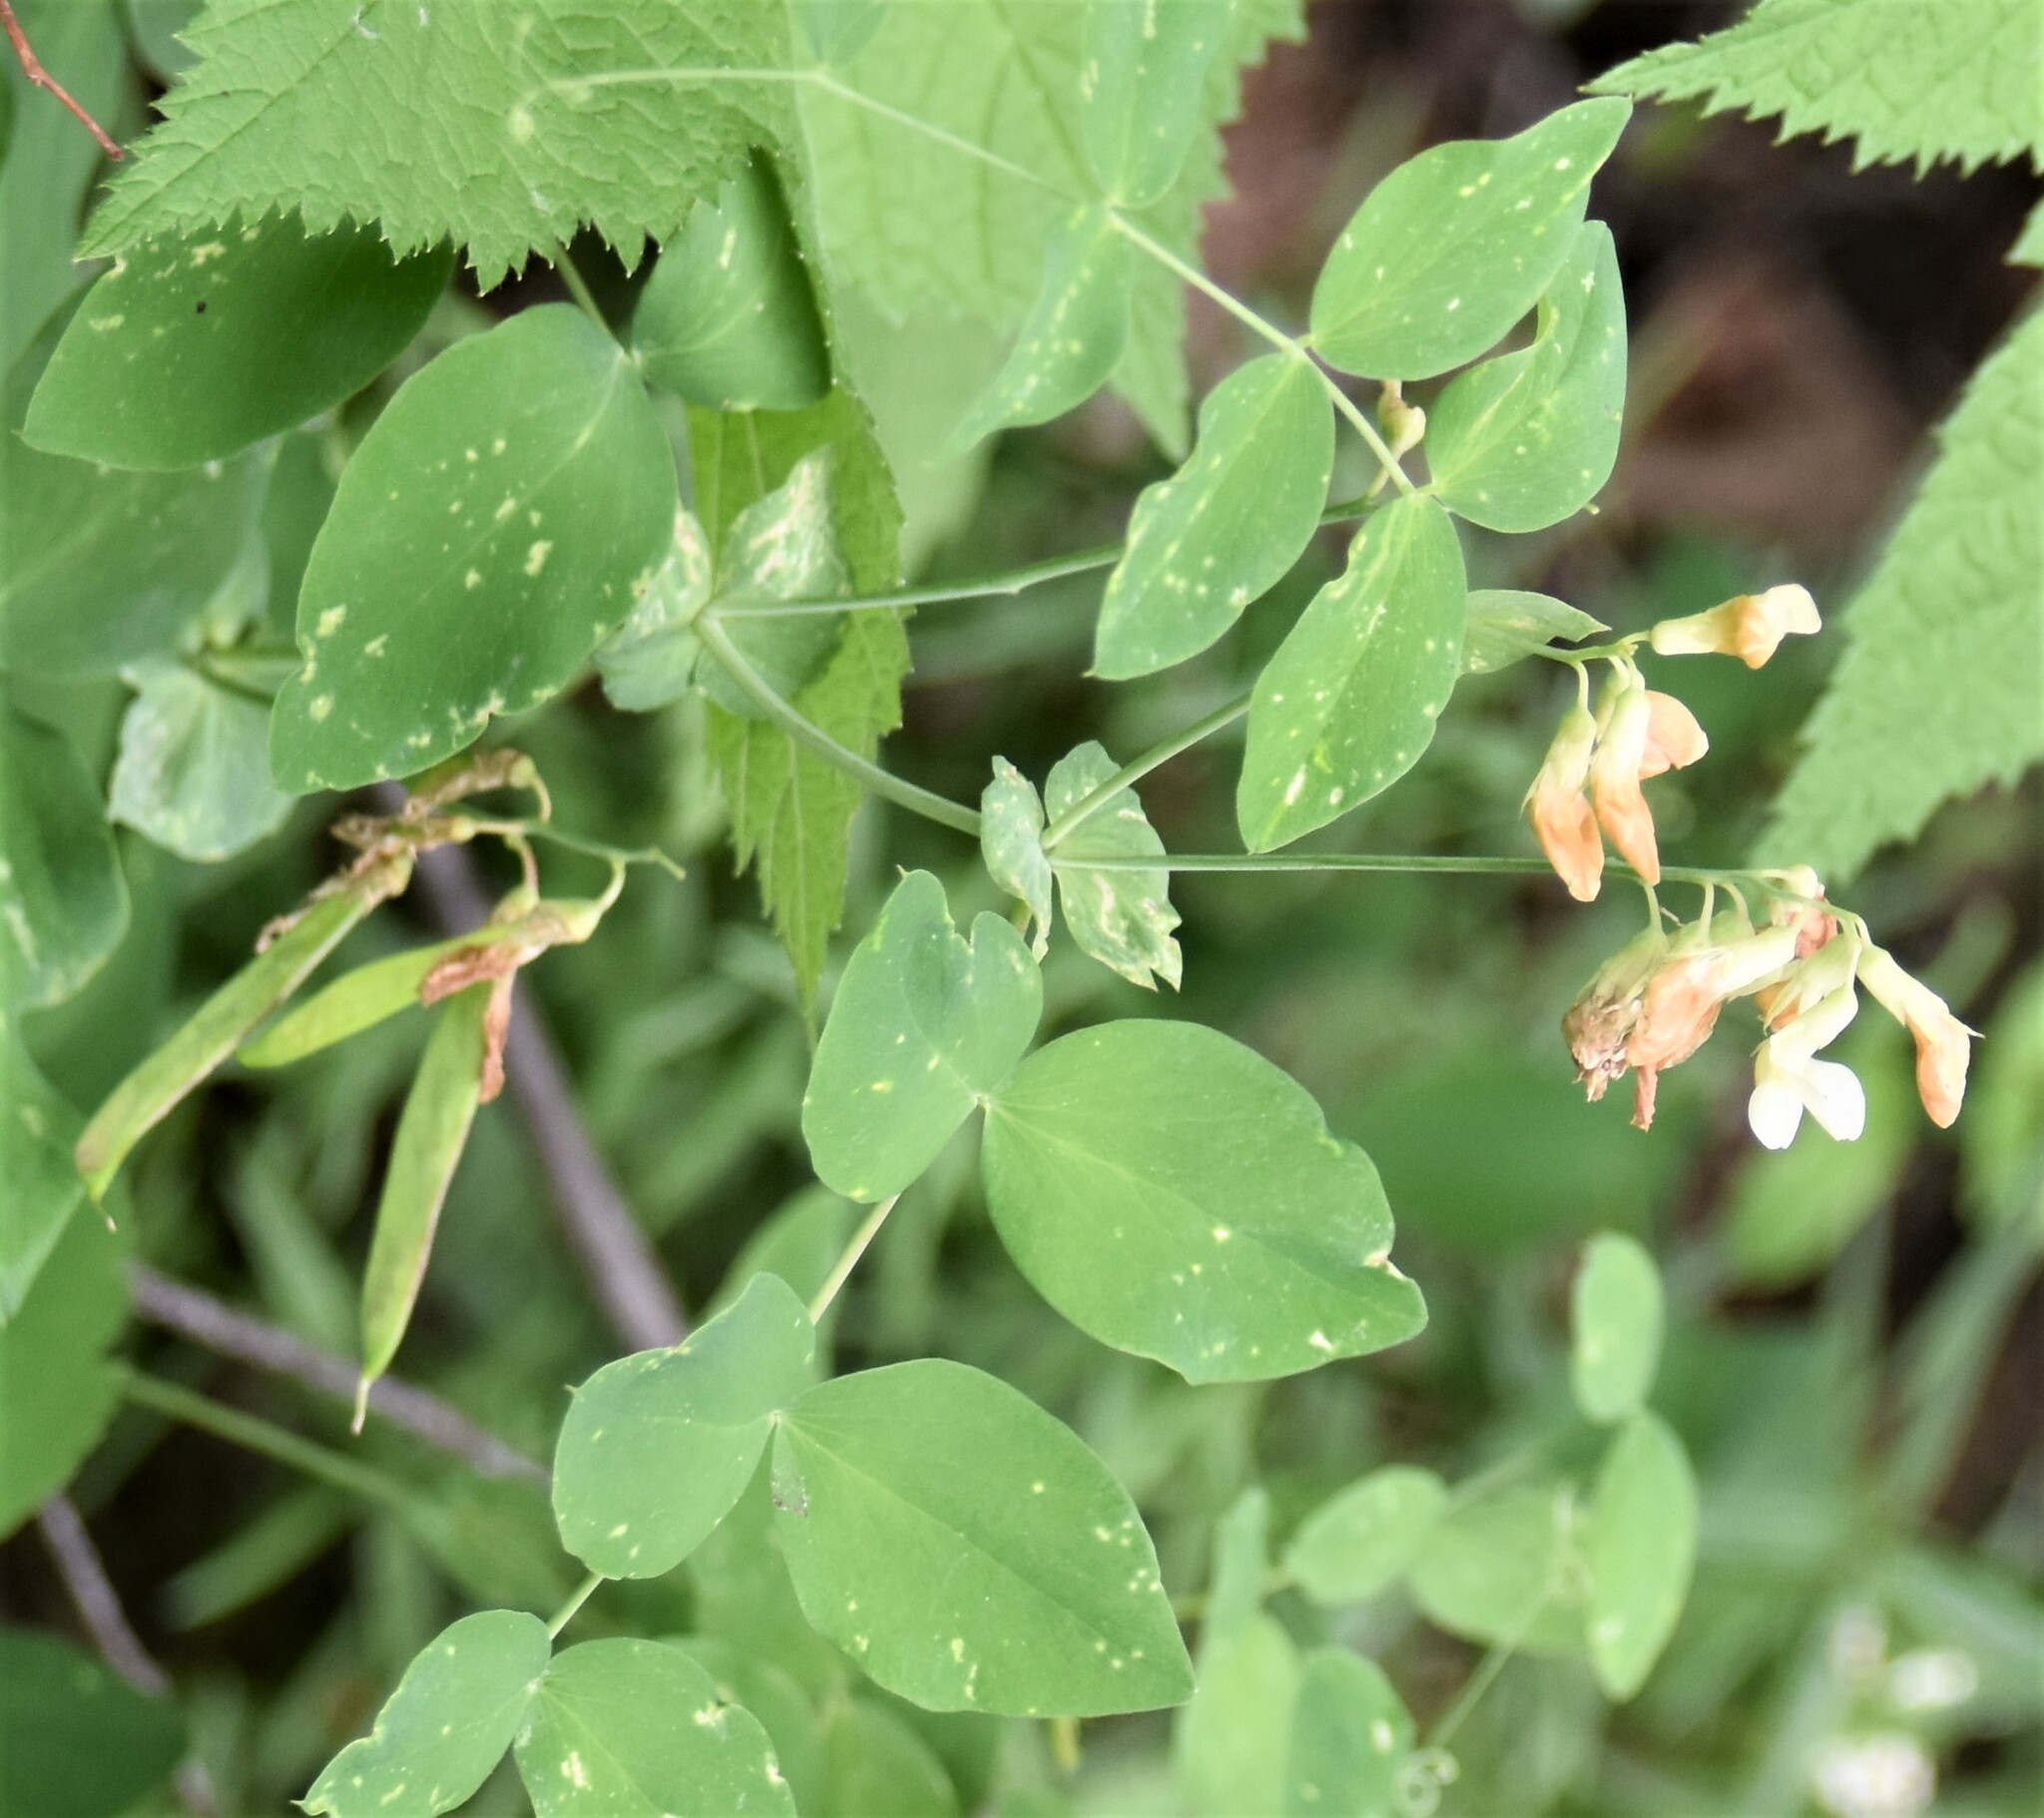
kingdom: Plantae
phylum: Tracheophyta
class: Magnoliopsida
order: Fabales
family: Fabaceae
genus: Lathyrus
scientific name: Lathyrus ochroleucus
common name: Pale vetchling
